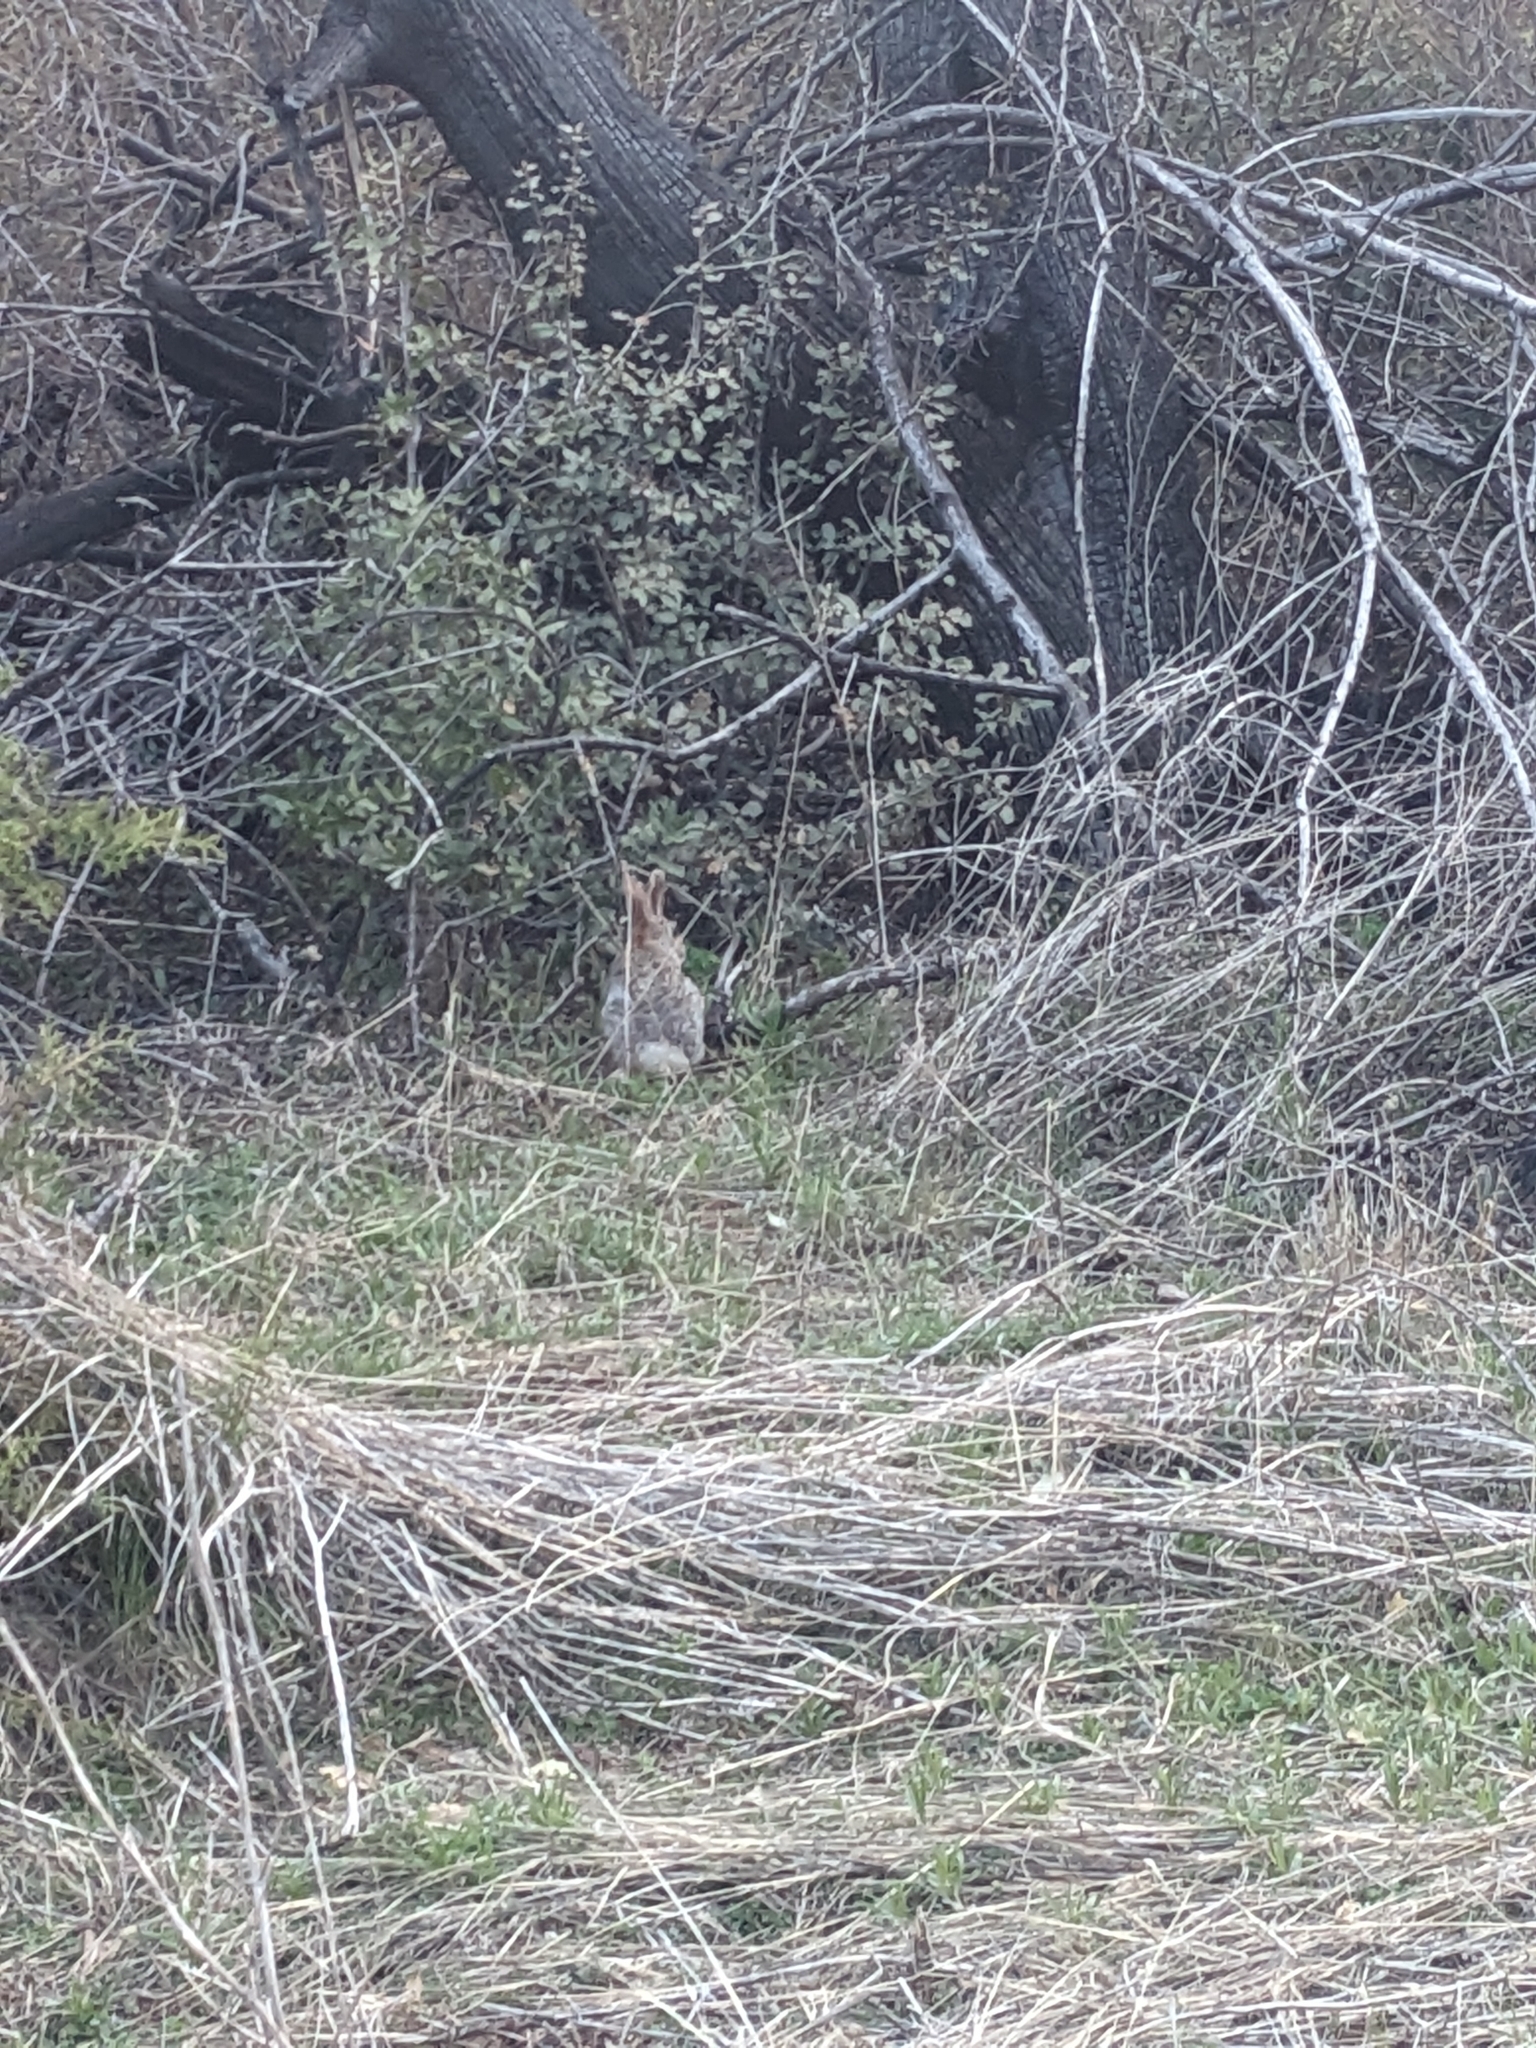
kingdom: Animalia
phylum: Chordata
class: Mammalia
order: Lagomorpha
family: Leporidae
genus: Sylvilagus
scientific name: Sylvilagus audubonii
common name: Desert cottontail
